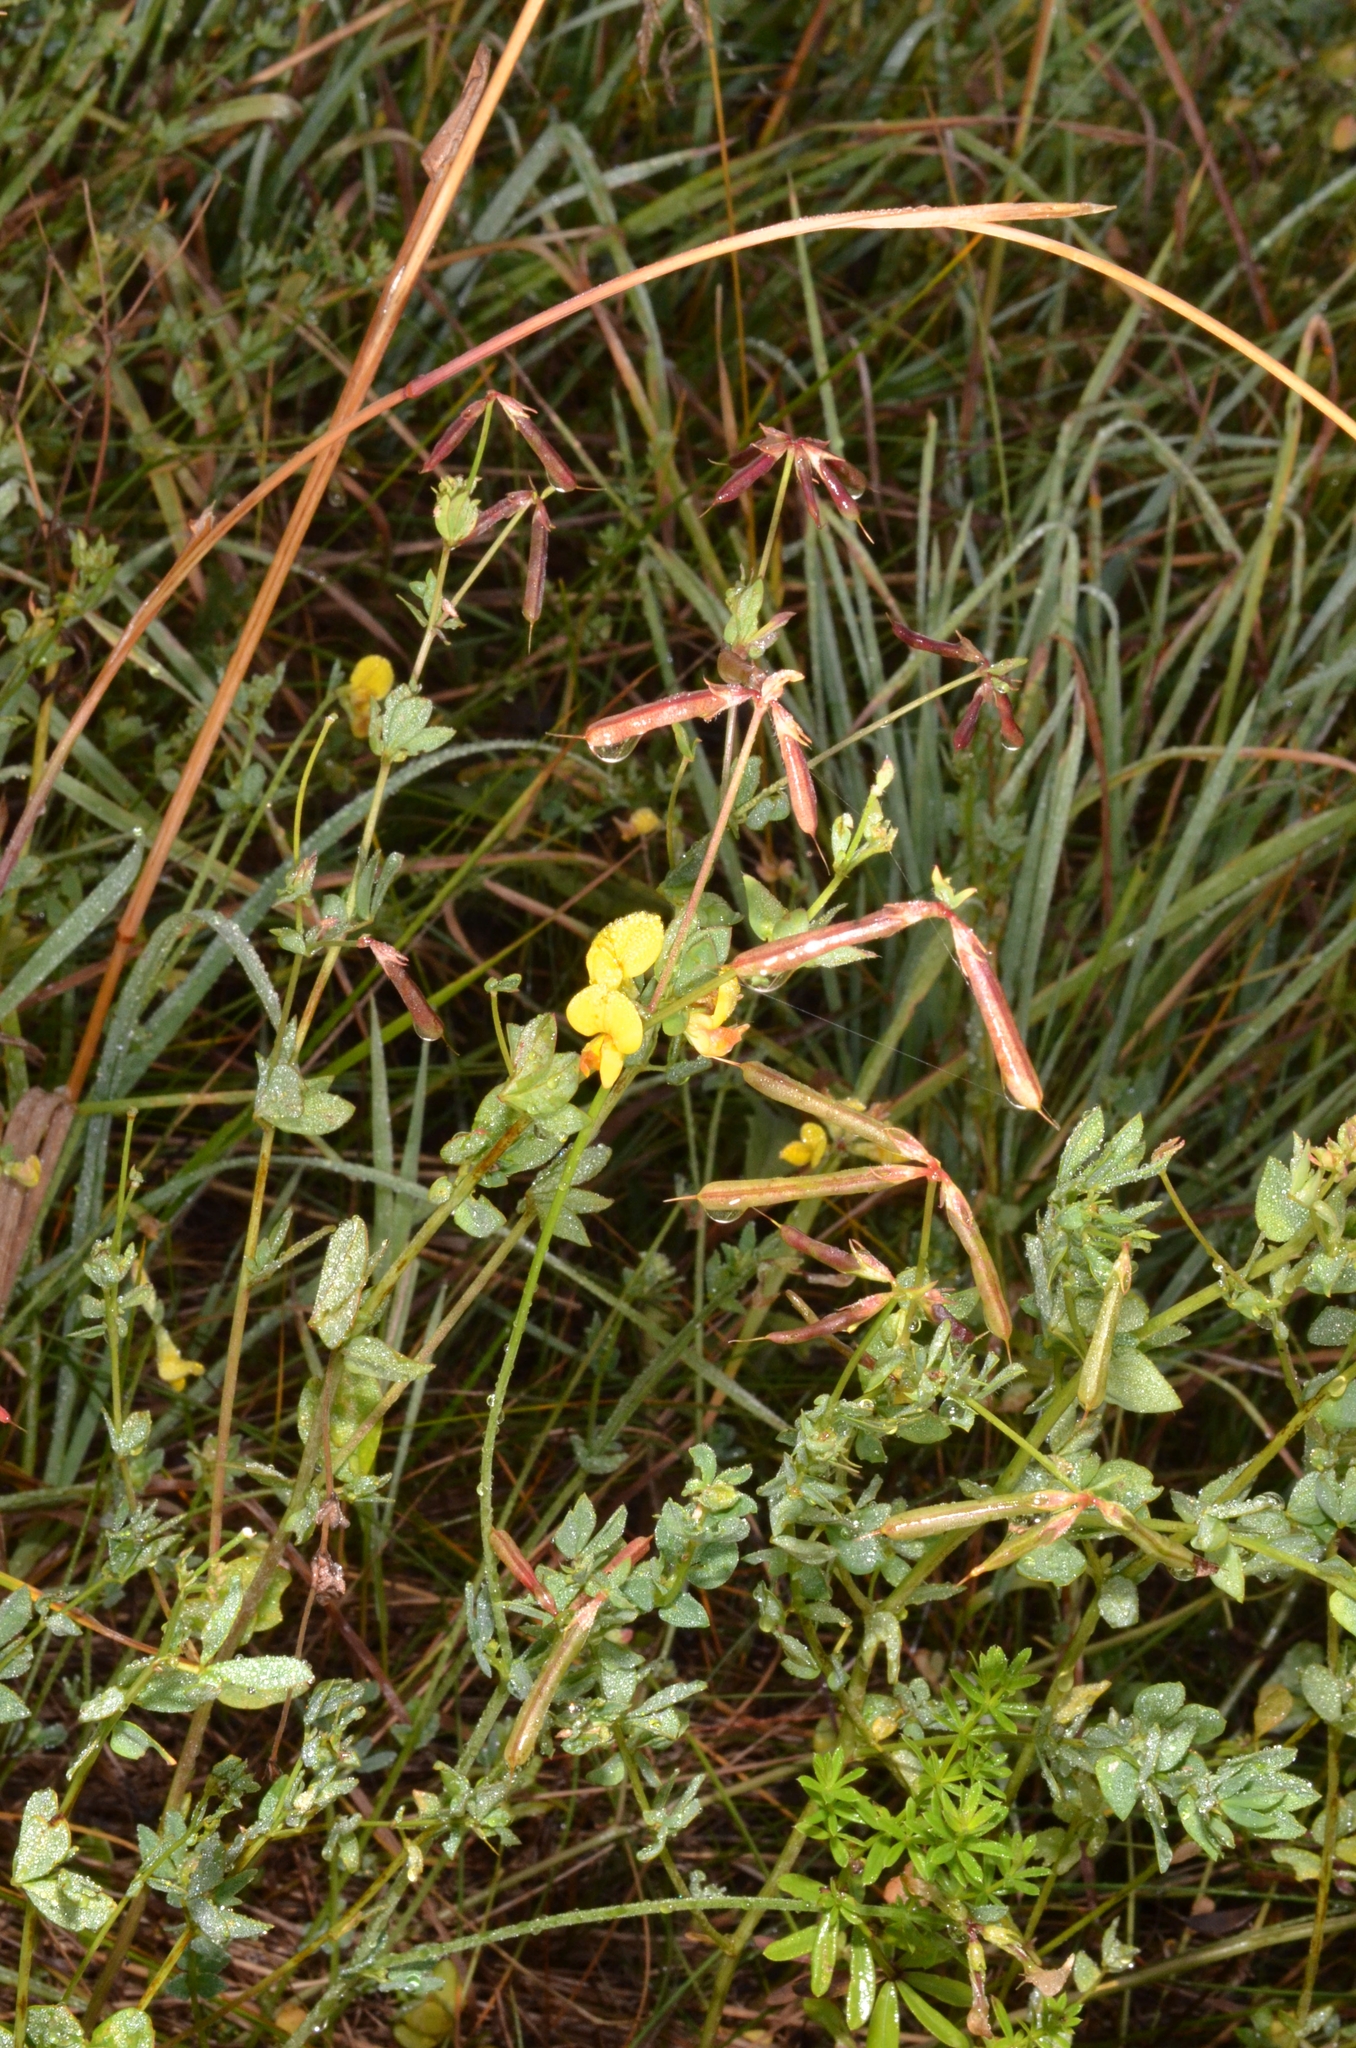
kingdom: Plantae
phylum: Tracheophyta
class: Magnoliopsida
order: Fabales
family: Fabaceae
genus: Lotus
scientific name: Lotus corniculatus
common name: Common bird's-foot-trefoil
